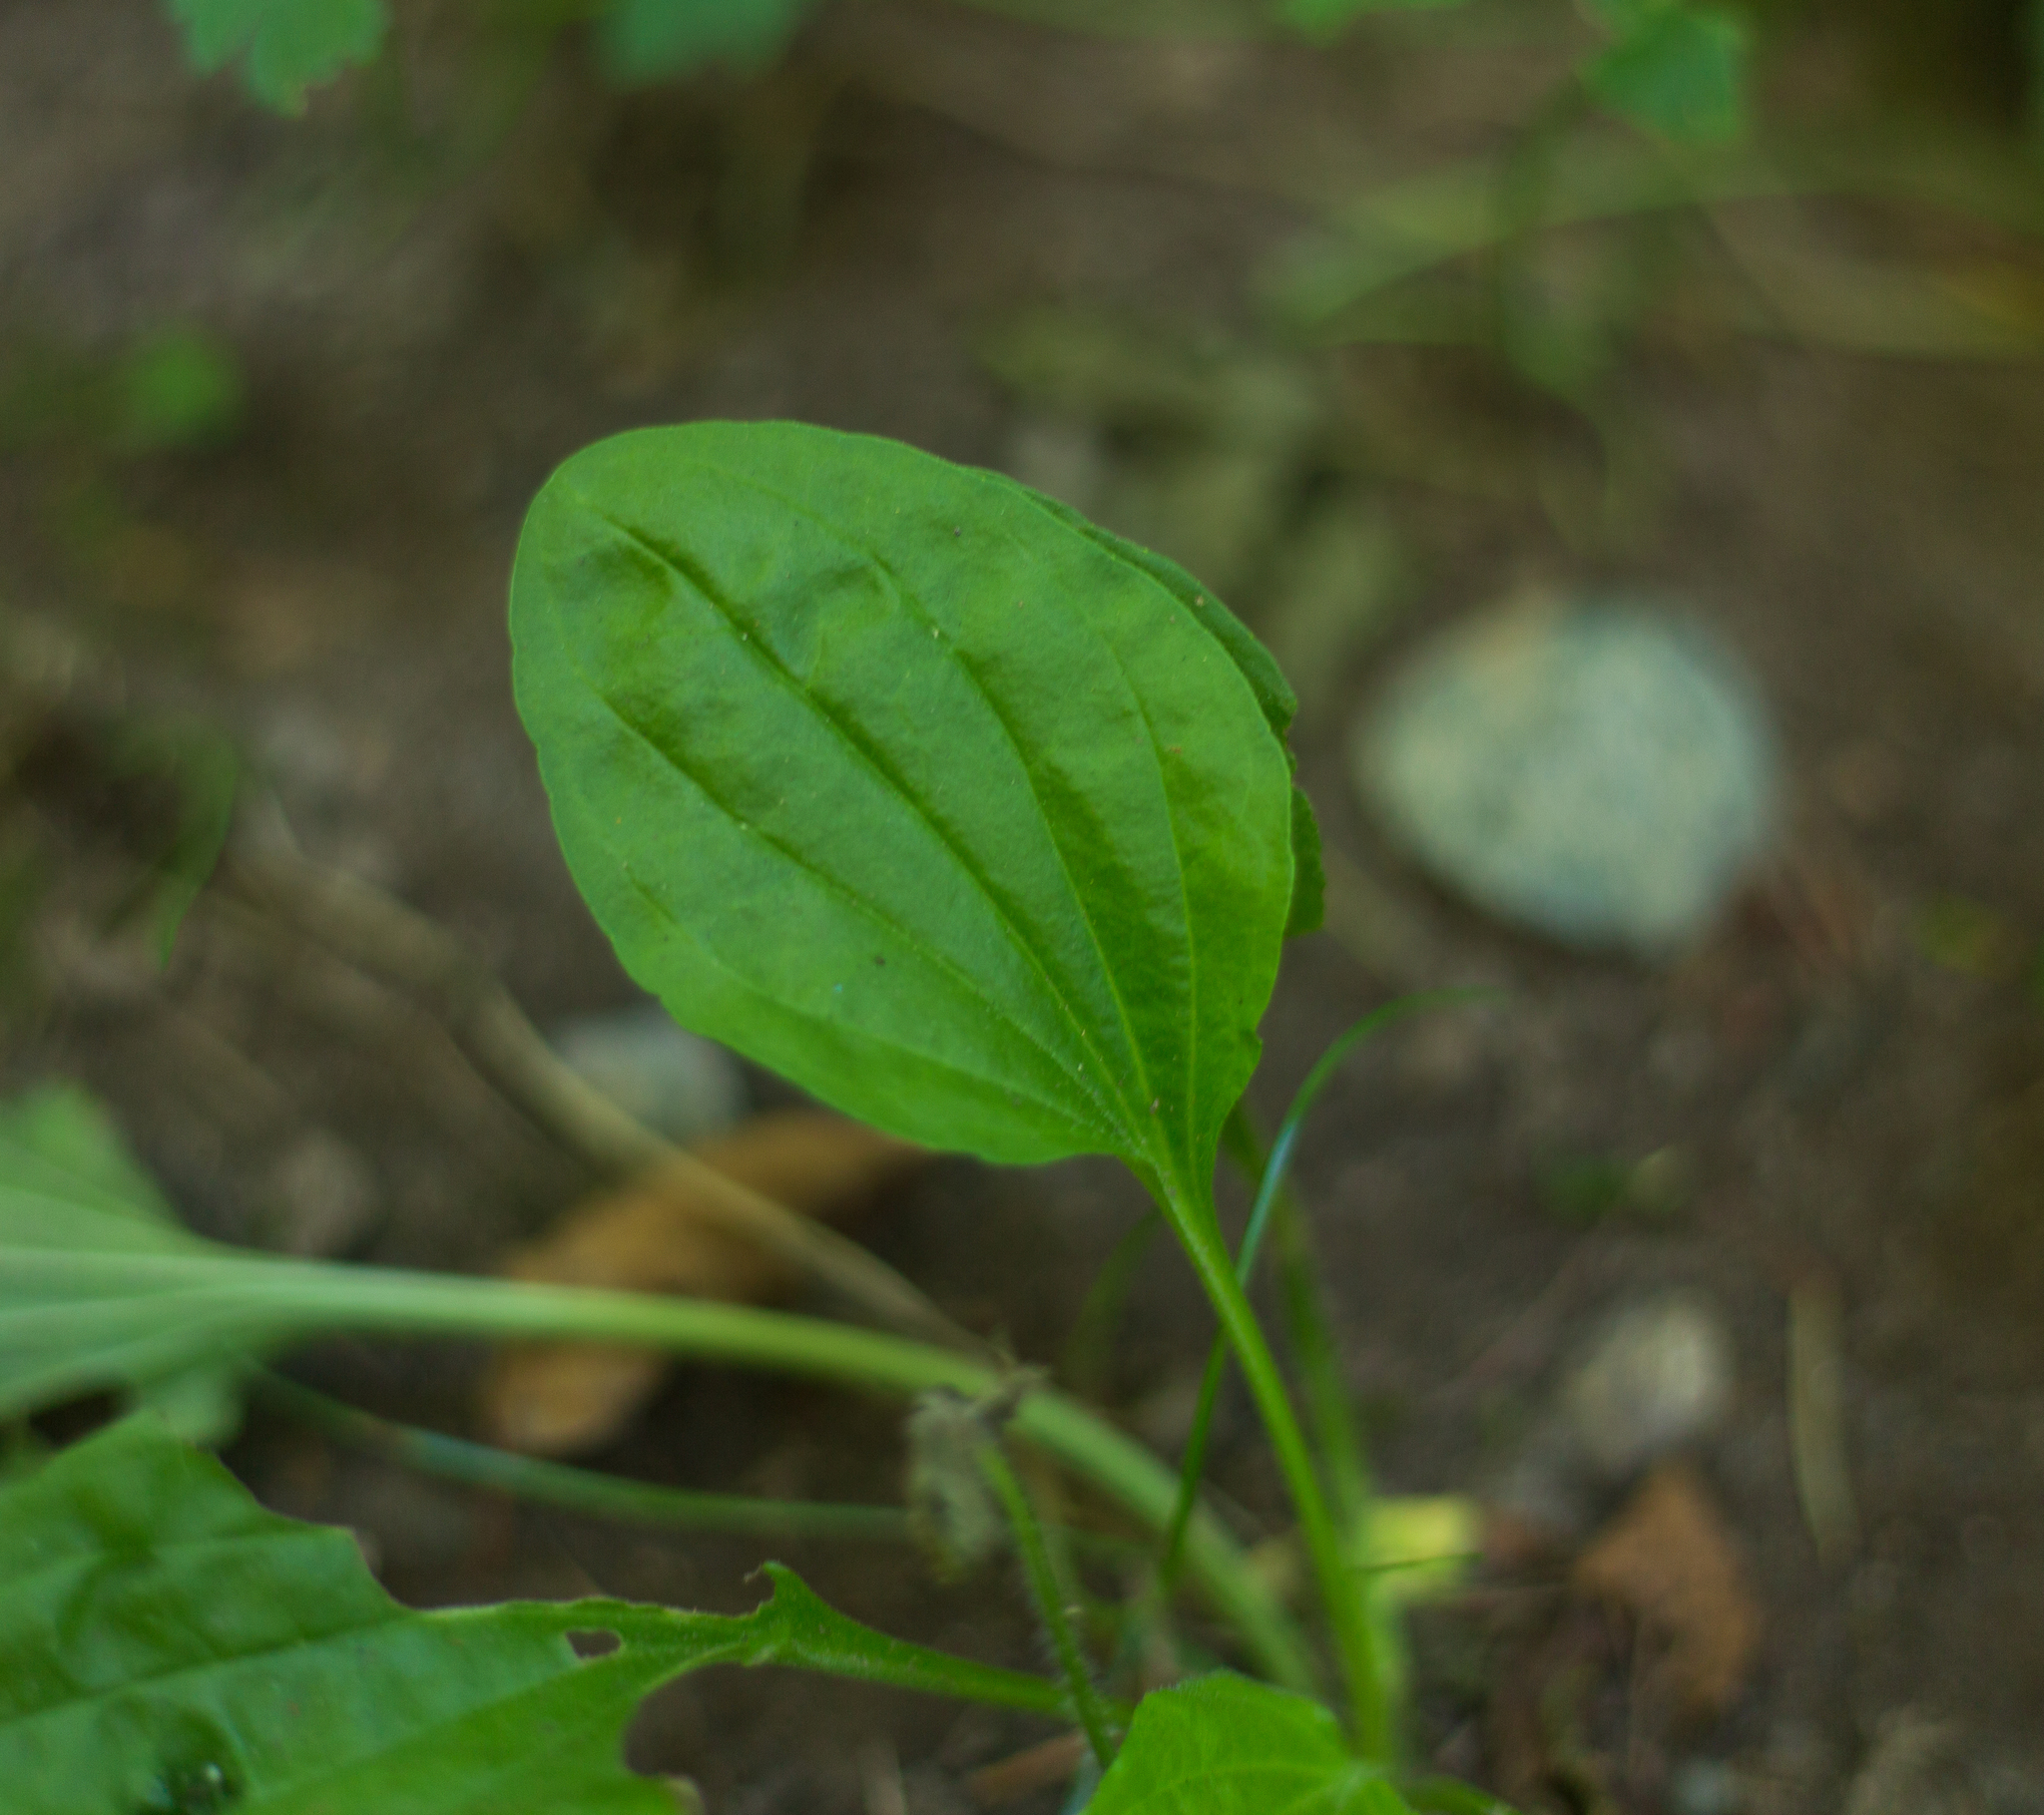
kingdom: Plantae
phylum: Tracheophyta
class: Magnoliopsida
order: Lamiales
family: Plantaginaceae
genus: Plantago
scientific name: Plantago major
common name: Common plantain
